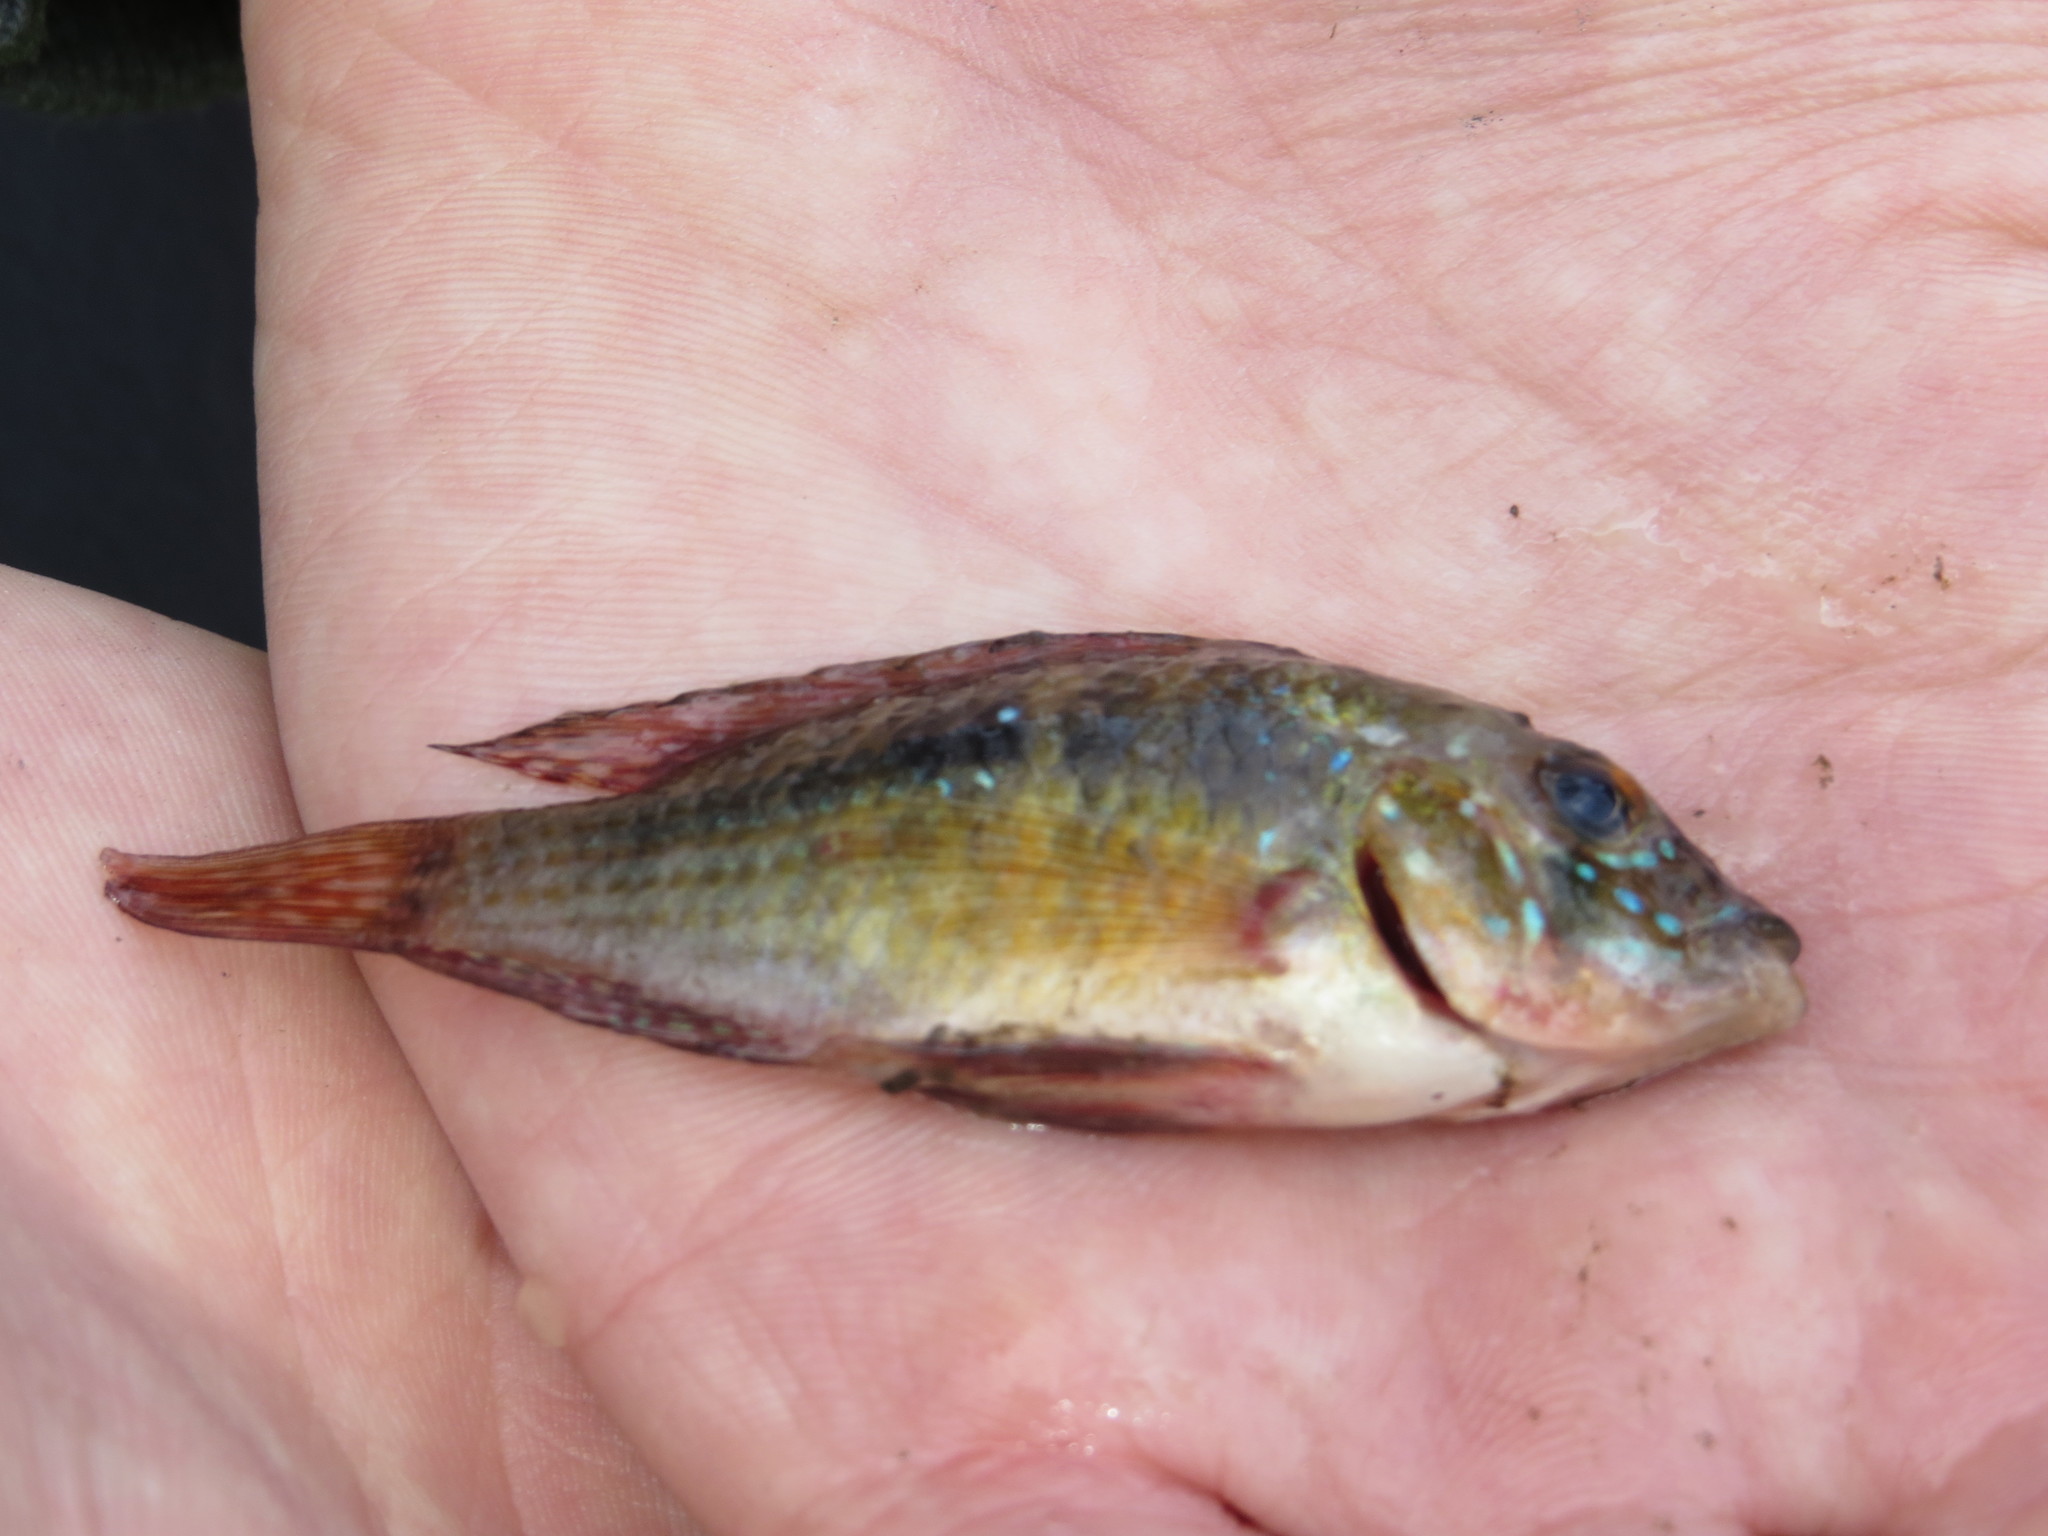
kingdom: Animalia
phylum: Chordata
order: Perciformes
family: Cichlidae
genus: Gymnogeophagus
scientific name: Gymnogeophagus meridionalis
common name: Earth eater
